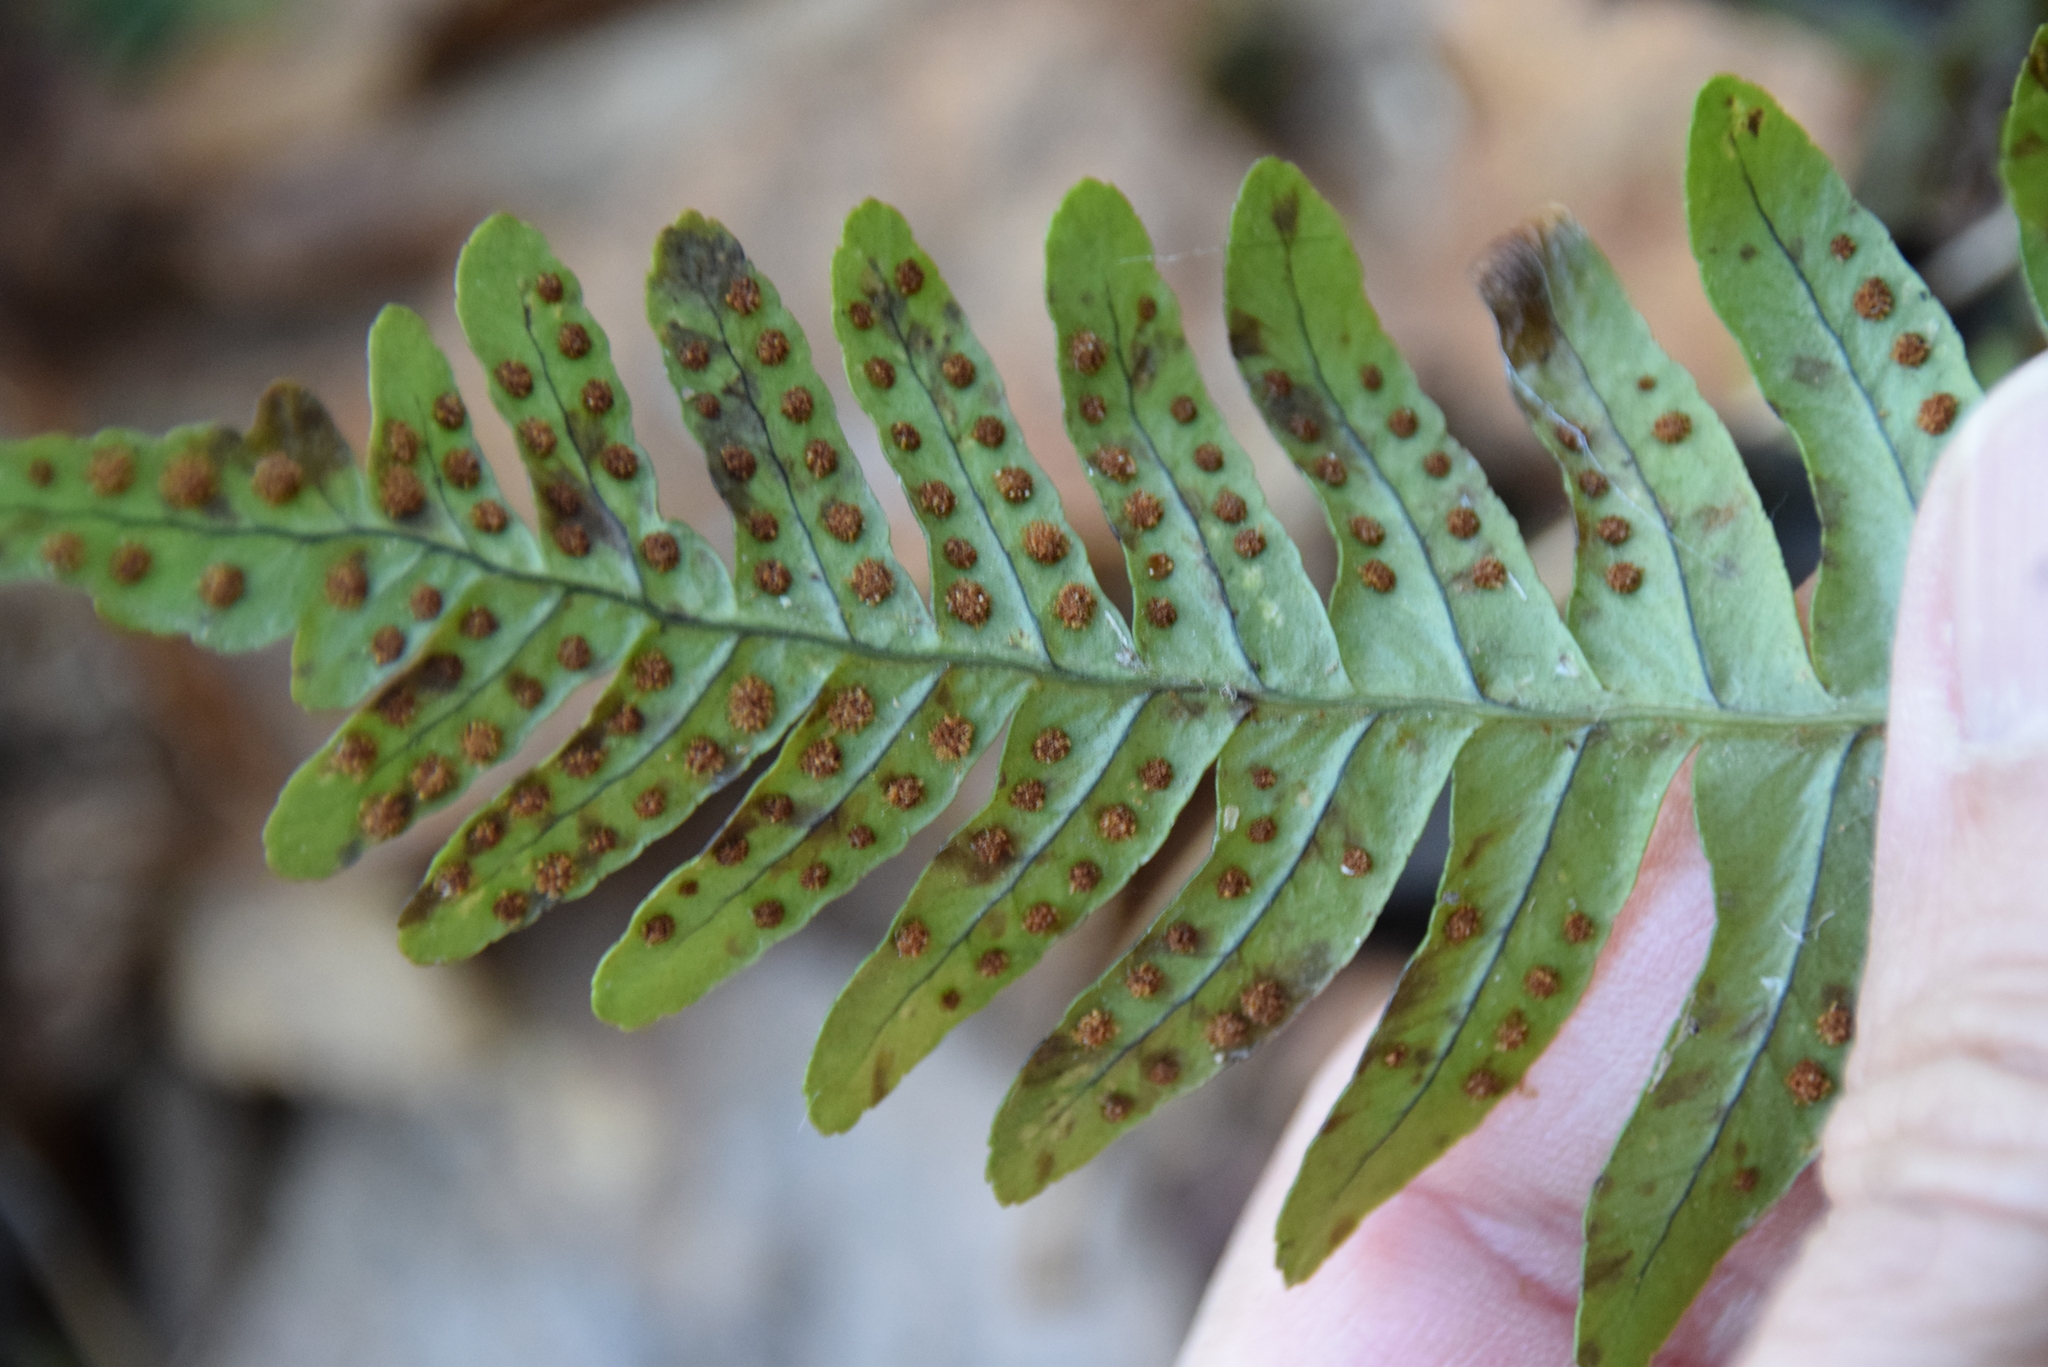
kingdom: Plantae
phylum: Tracheophyta
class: Polypodiopsida
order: Polypodiales
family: Polypodiaceae
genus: Polypodium
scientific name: Polypodium virginianum
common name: American wall fern
